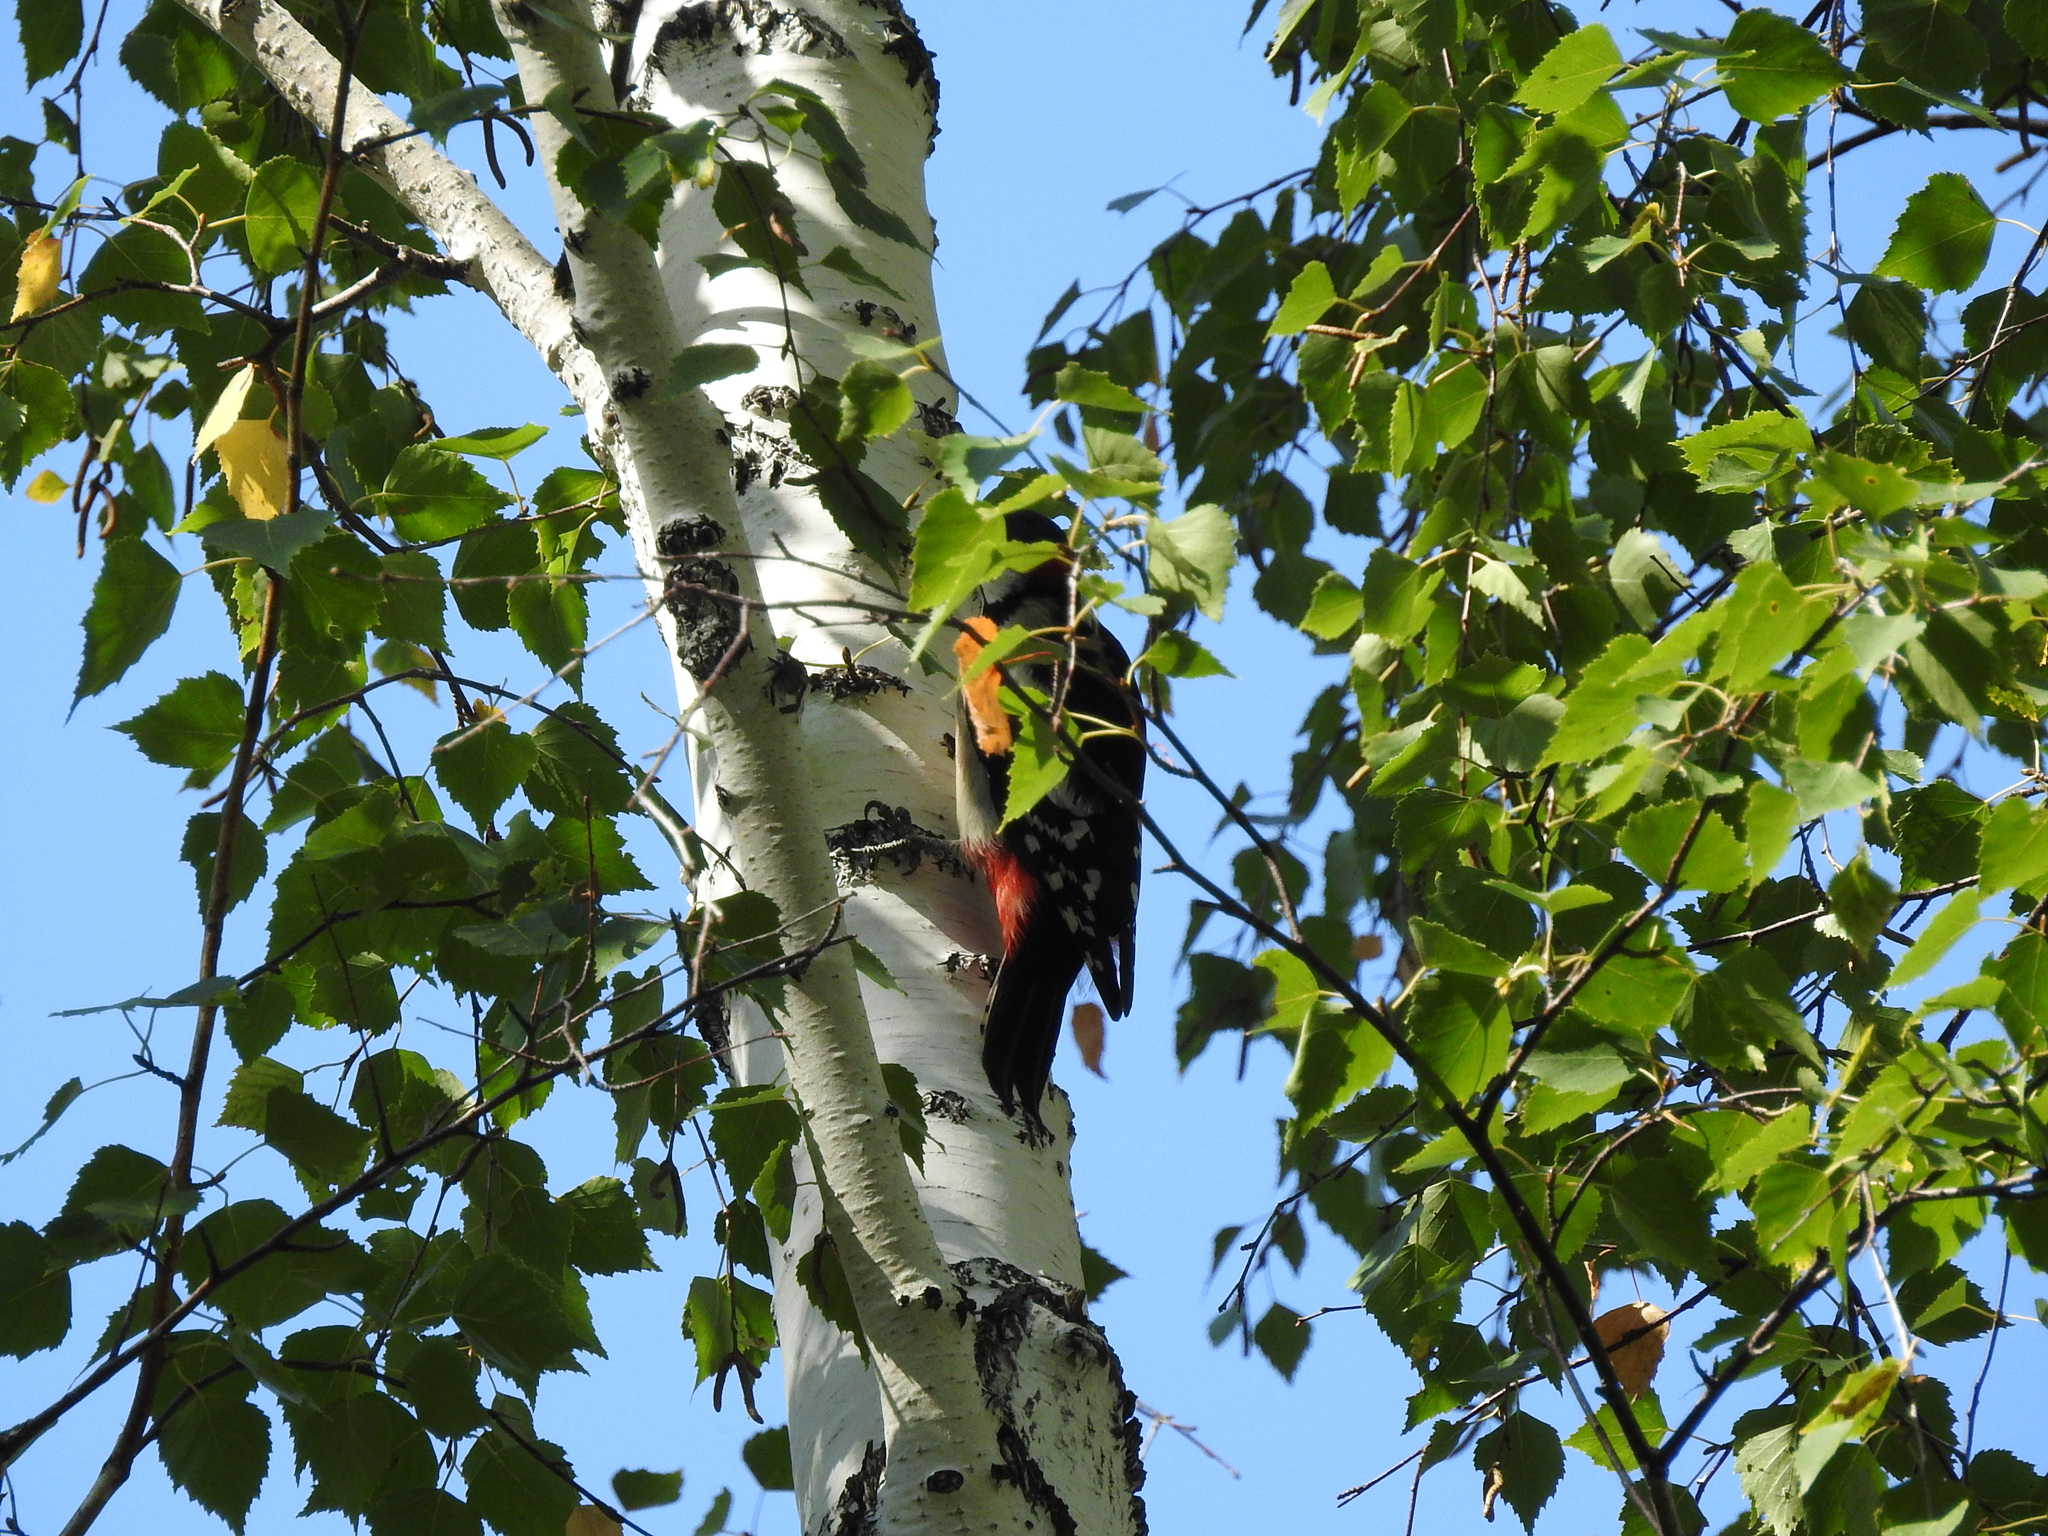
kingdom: Animalia
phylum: Chordata
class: Aves
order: Piciformes
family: Picidae
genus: Dendrocopos
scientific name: Dendrocopos major
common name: Great spotted woodpecker
